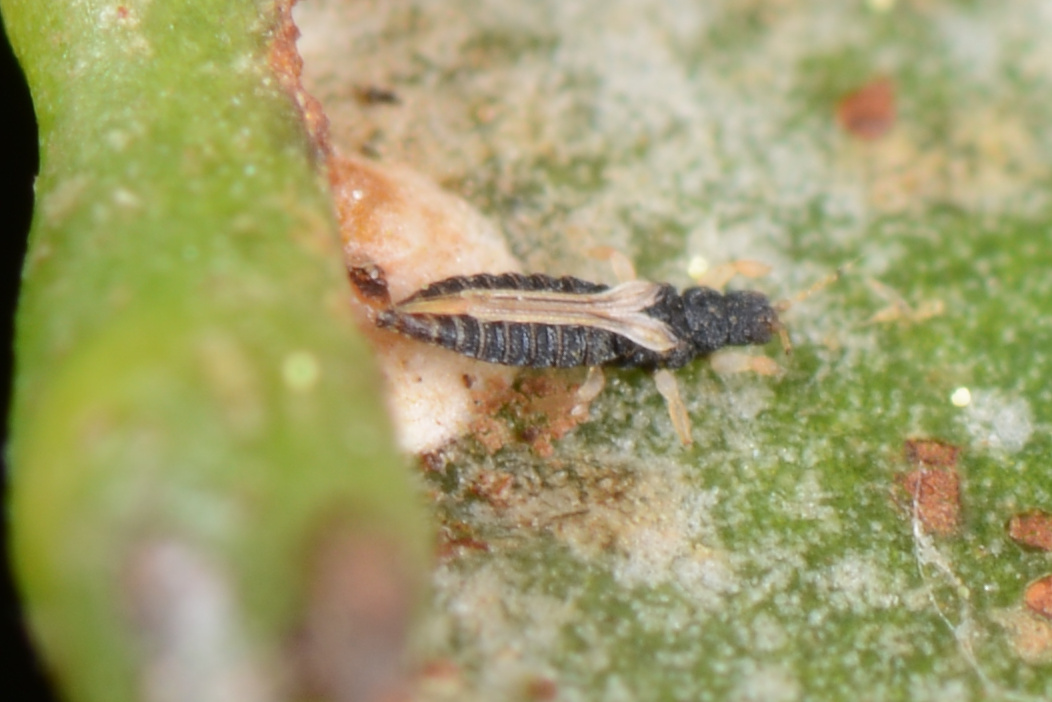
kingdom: Animalia
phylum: Arthropoda
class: Insecta
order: Thysanoptera
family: Thripidae
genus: Heliothrips
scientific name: Heliothrips haemorrhoidalis
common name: Thrips
